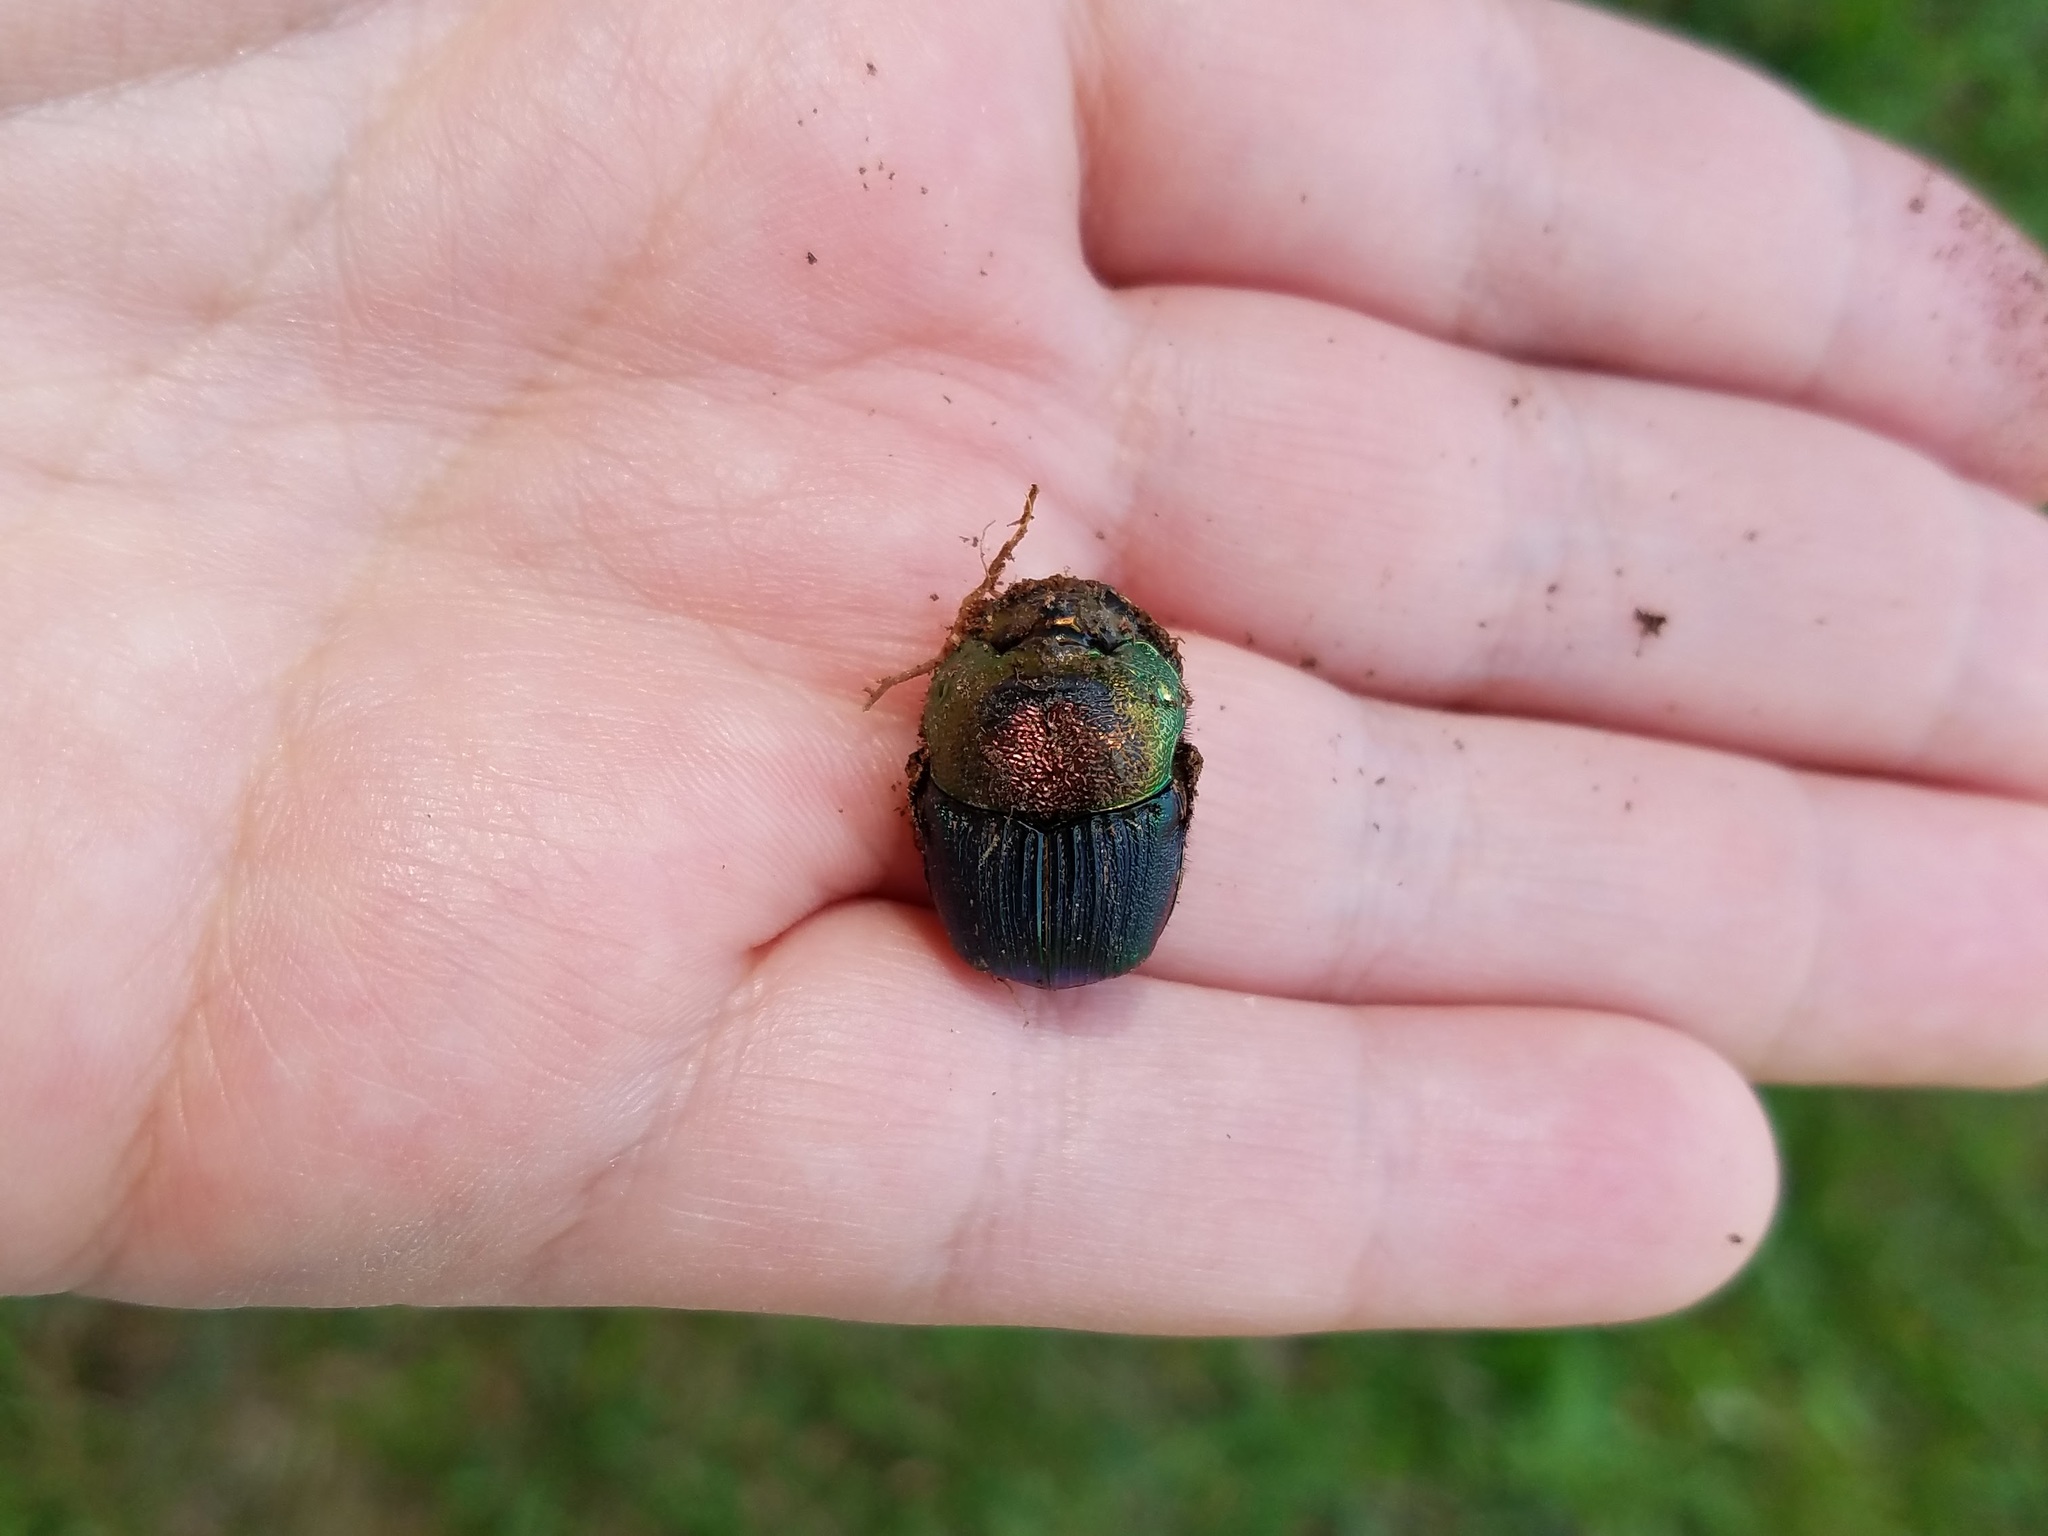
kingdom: Animalia
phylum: Arthropoda
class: Insecta
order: Coleoptera
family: Scarabaeidae
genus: Phanaeus
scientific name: Phanaeus vindex
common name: Rainbow scarab
